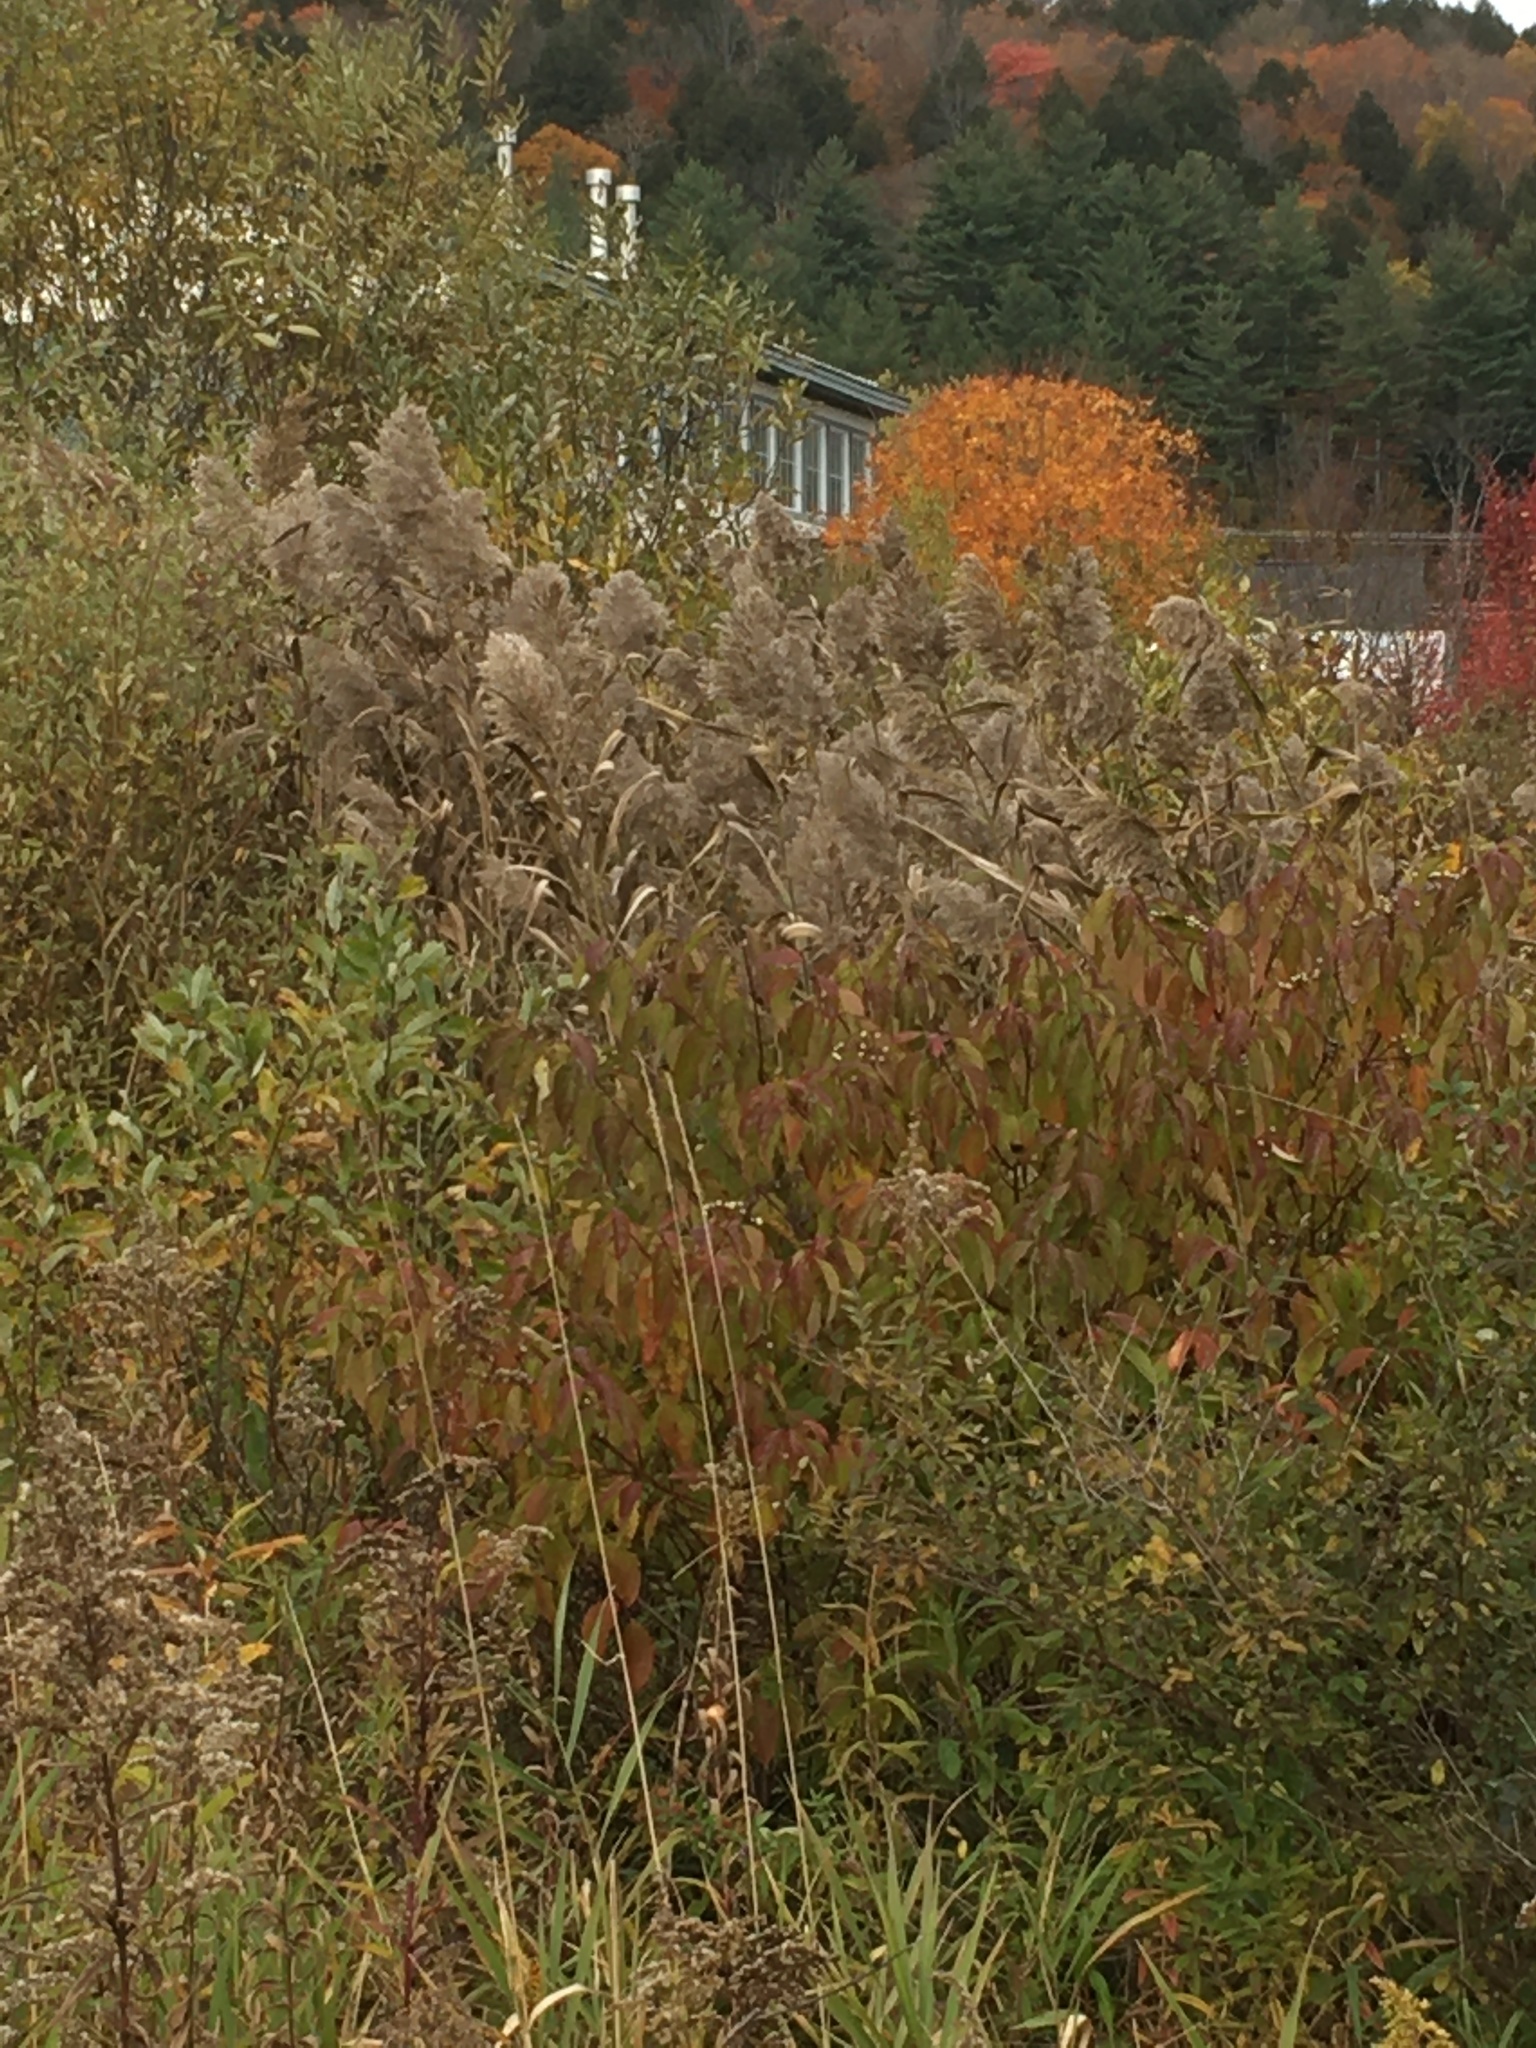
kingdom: Plantae
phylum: Tracheophyta
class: Liliopsida
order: Poales
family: Poaceae
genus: Phragmites
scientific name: Phragmites australis
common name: Common reed
